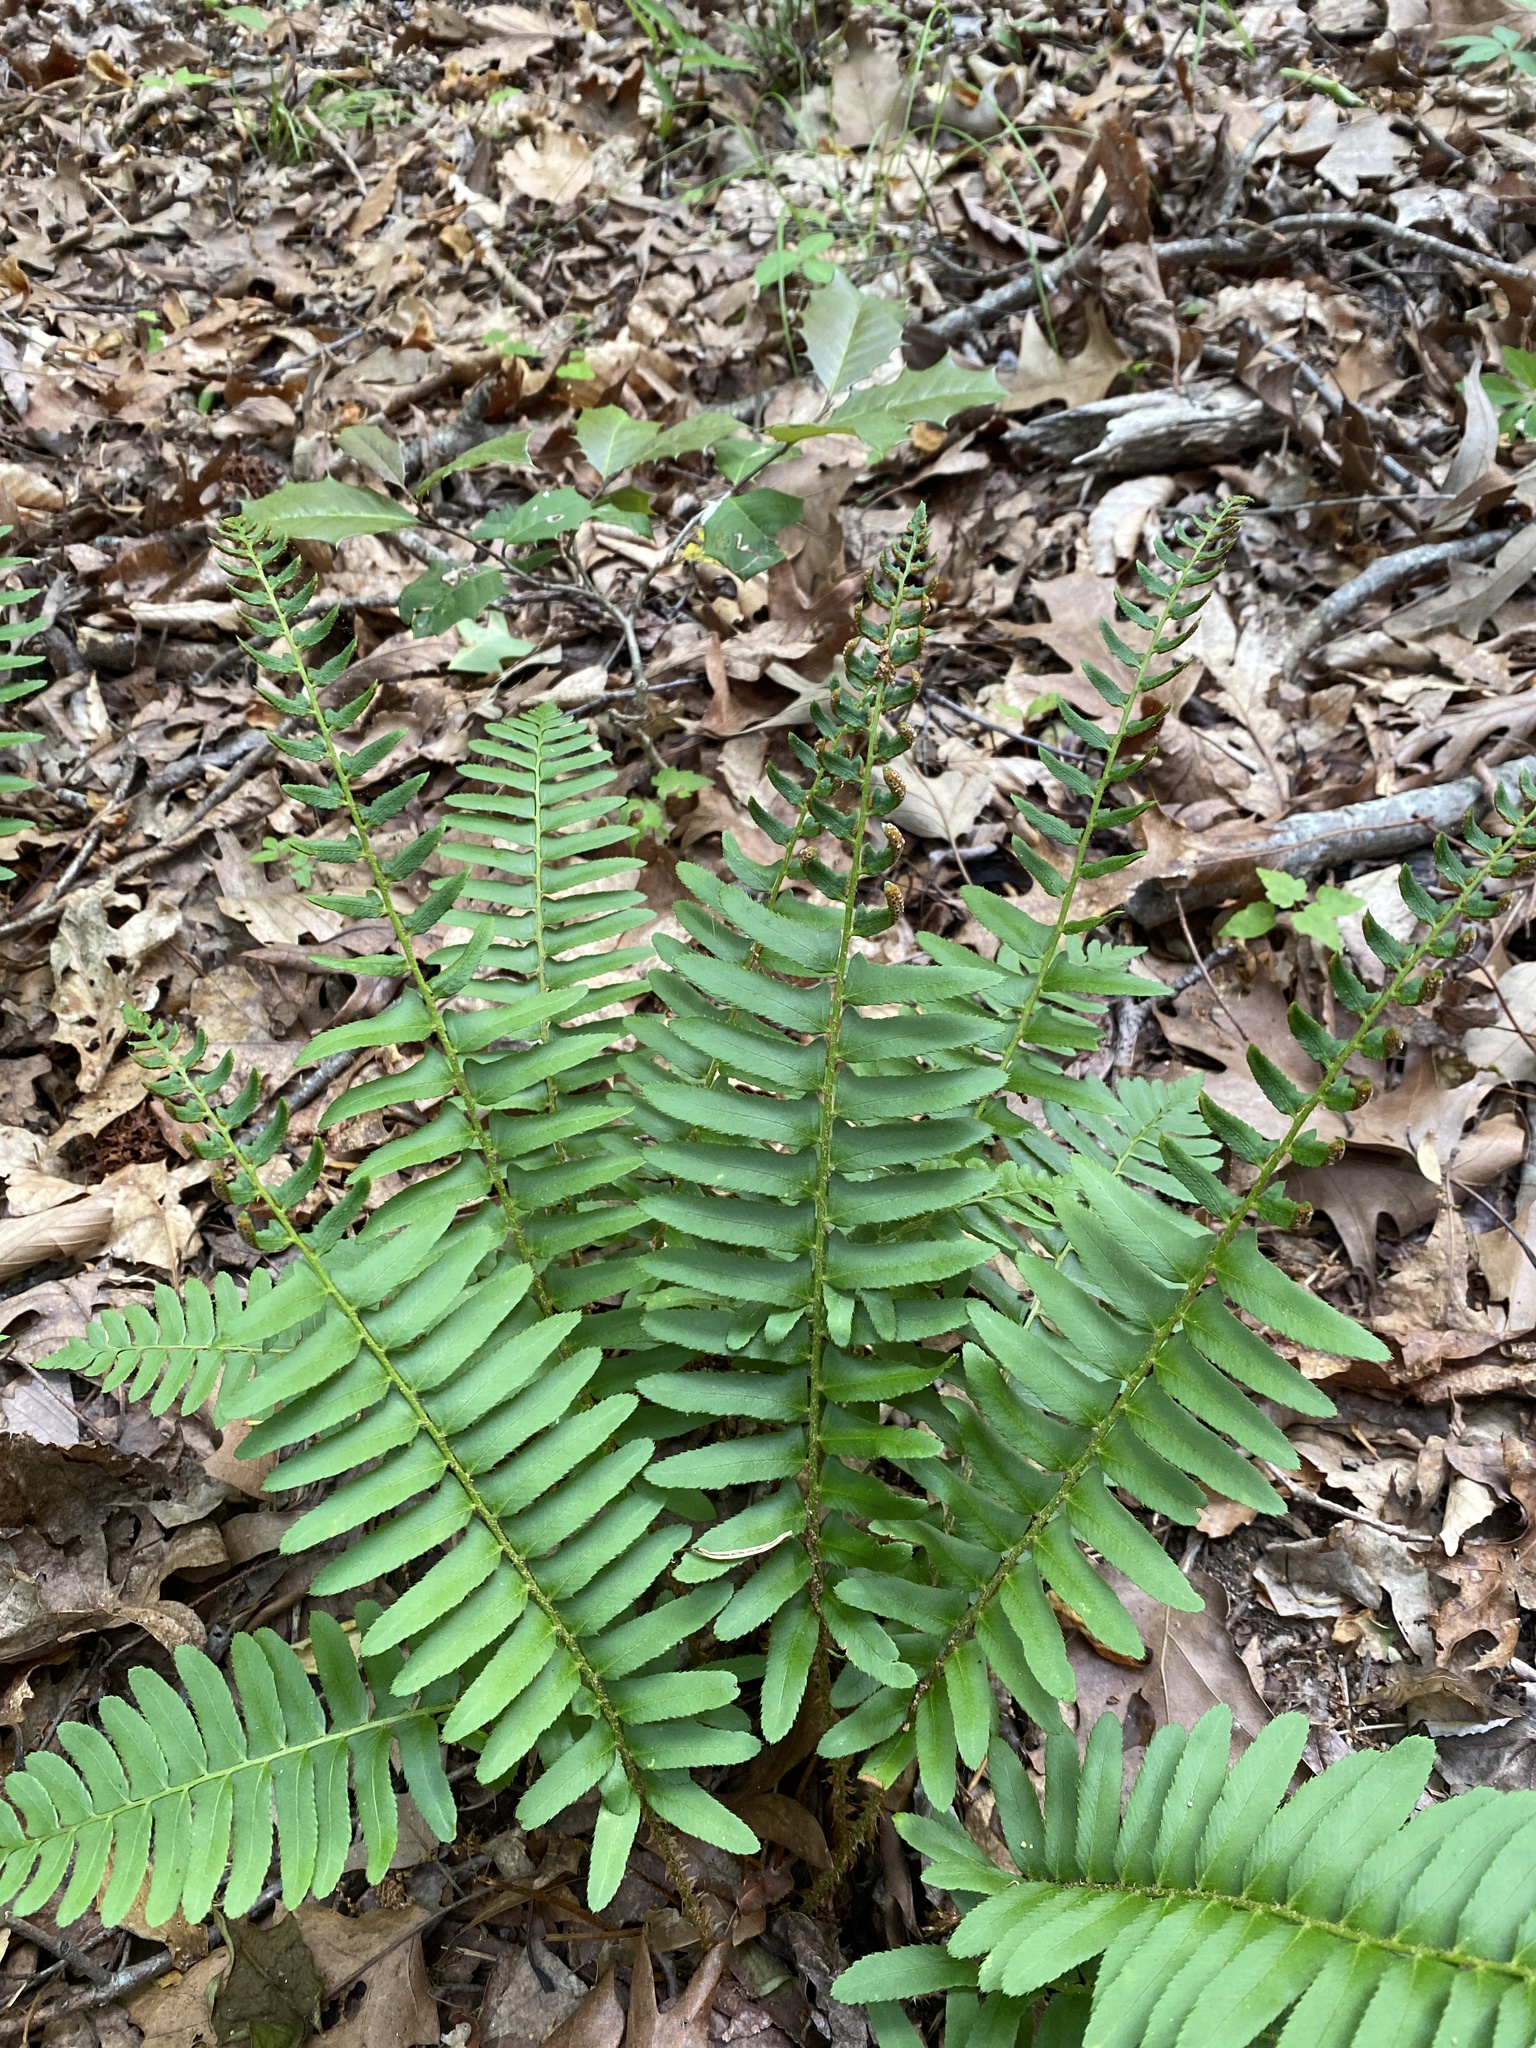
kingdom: Plantae
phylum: Tracheophyta
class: Polypodiopsida
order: Polypodiales
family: Dryopteridaceae
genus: Polystichum
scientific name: Polystichum acrostichoides
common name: Christmas fern
